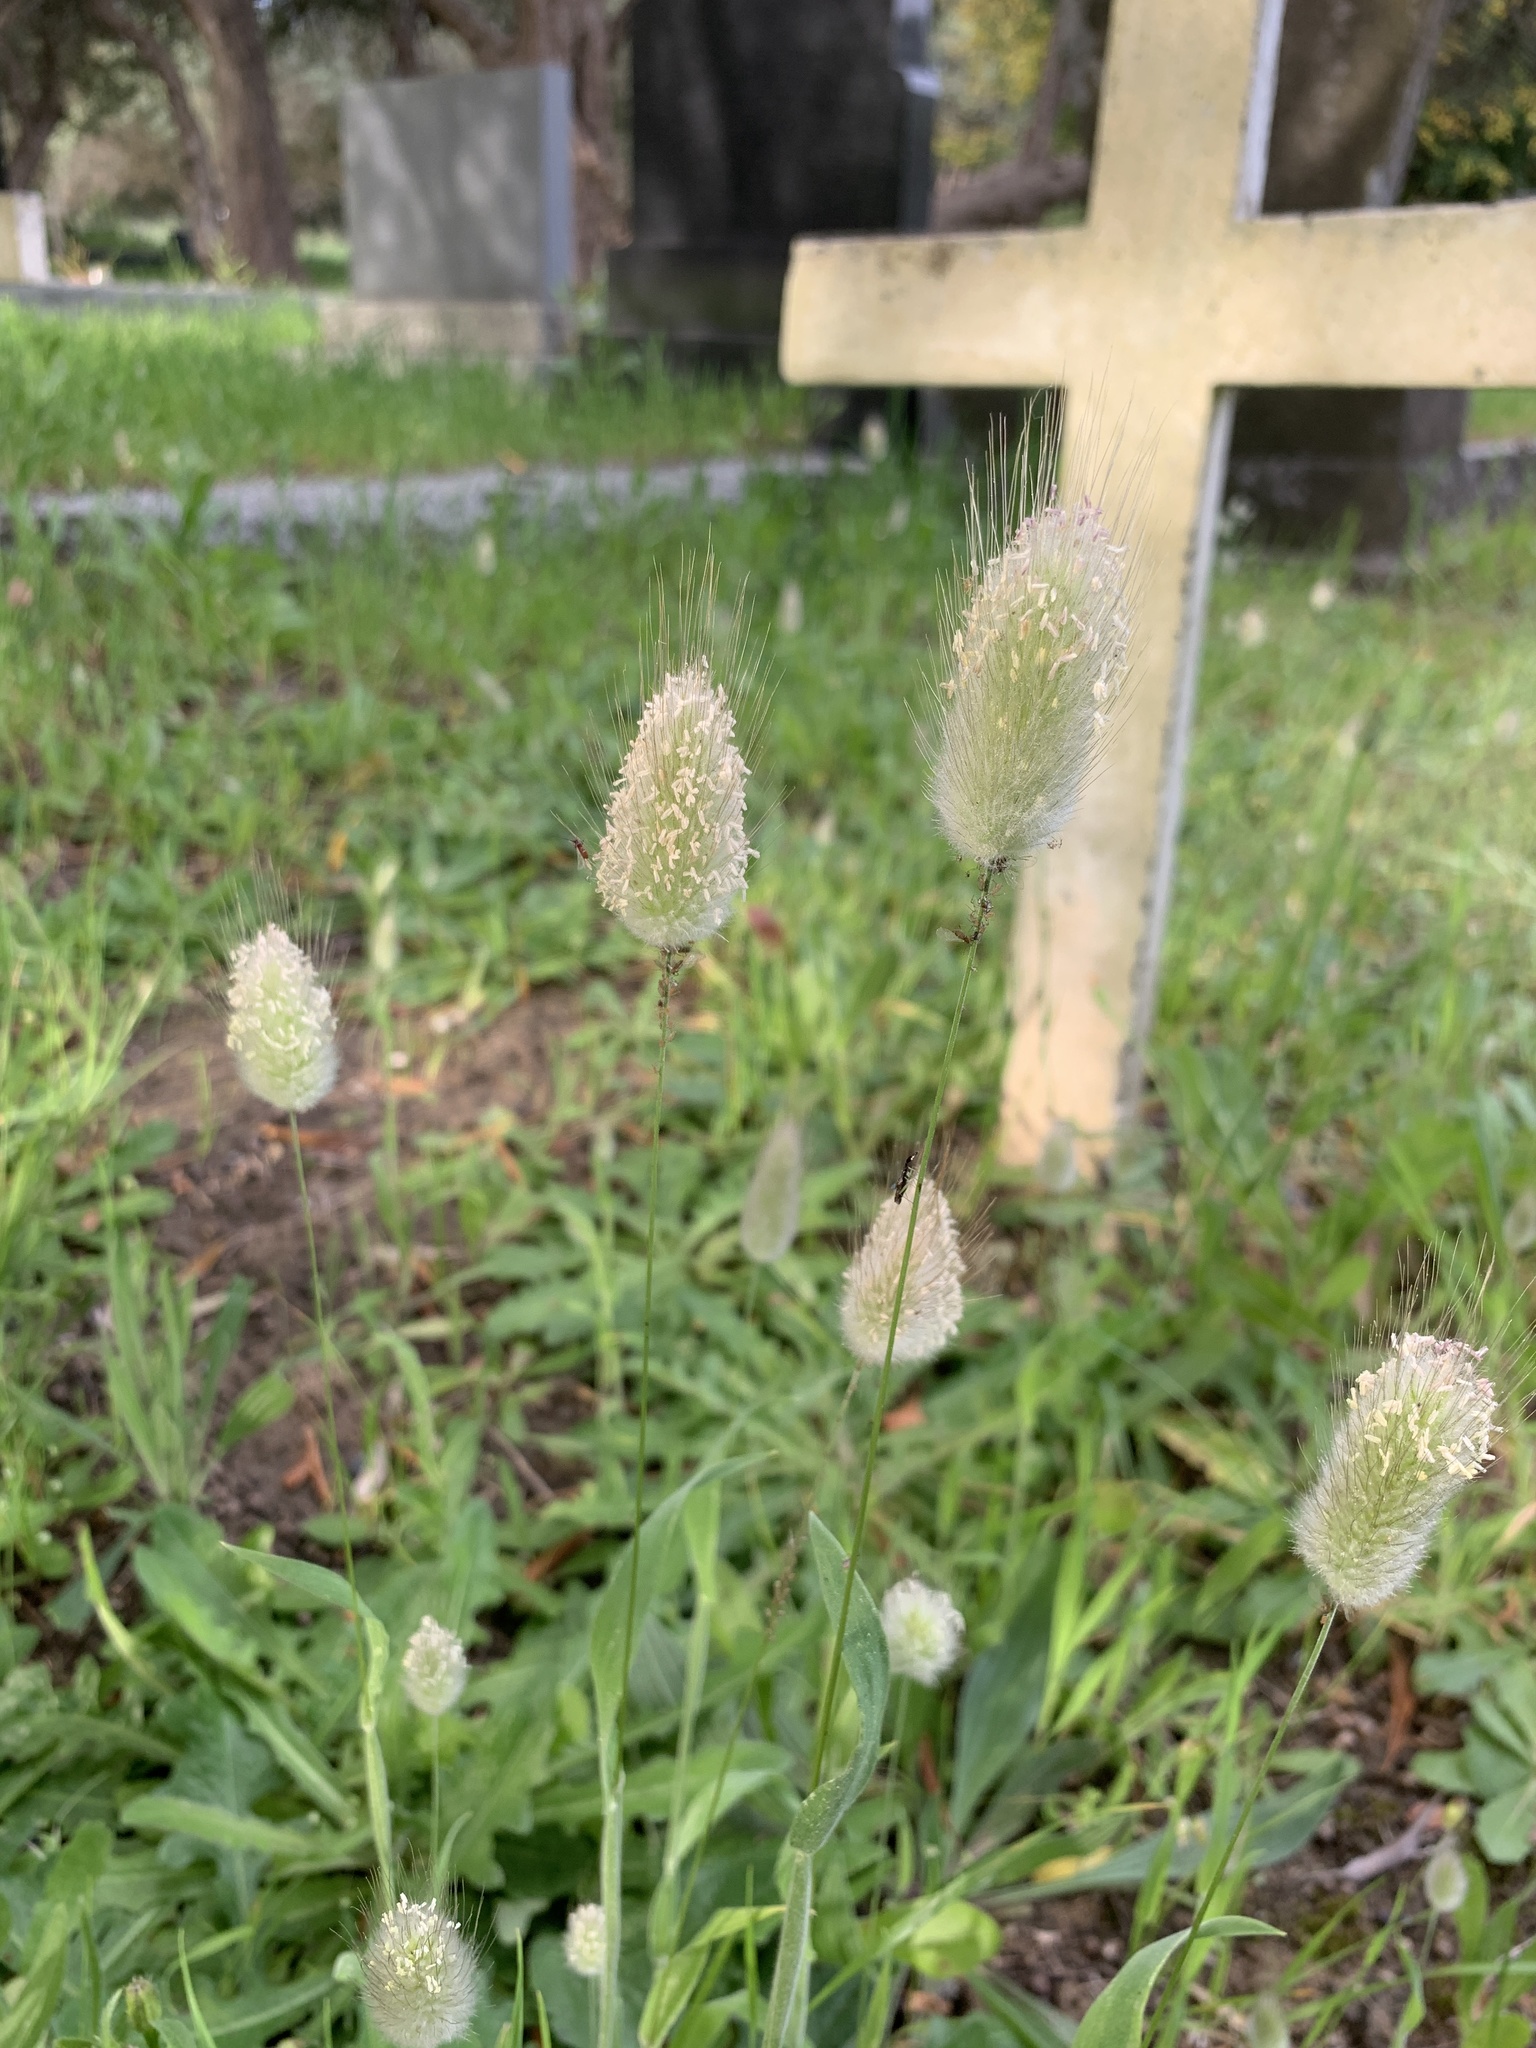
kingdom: Plantae
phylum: Tracheophyta
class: Liliopsida
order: Poales
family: Poaceae
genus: Lagurus
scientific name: Lagurus ovatus
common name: Hare's-tail
